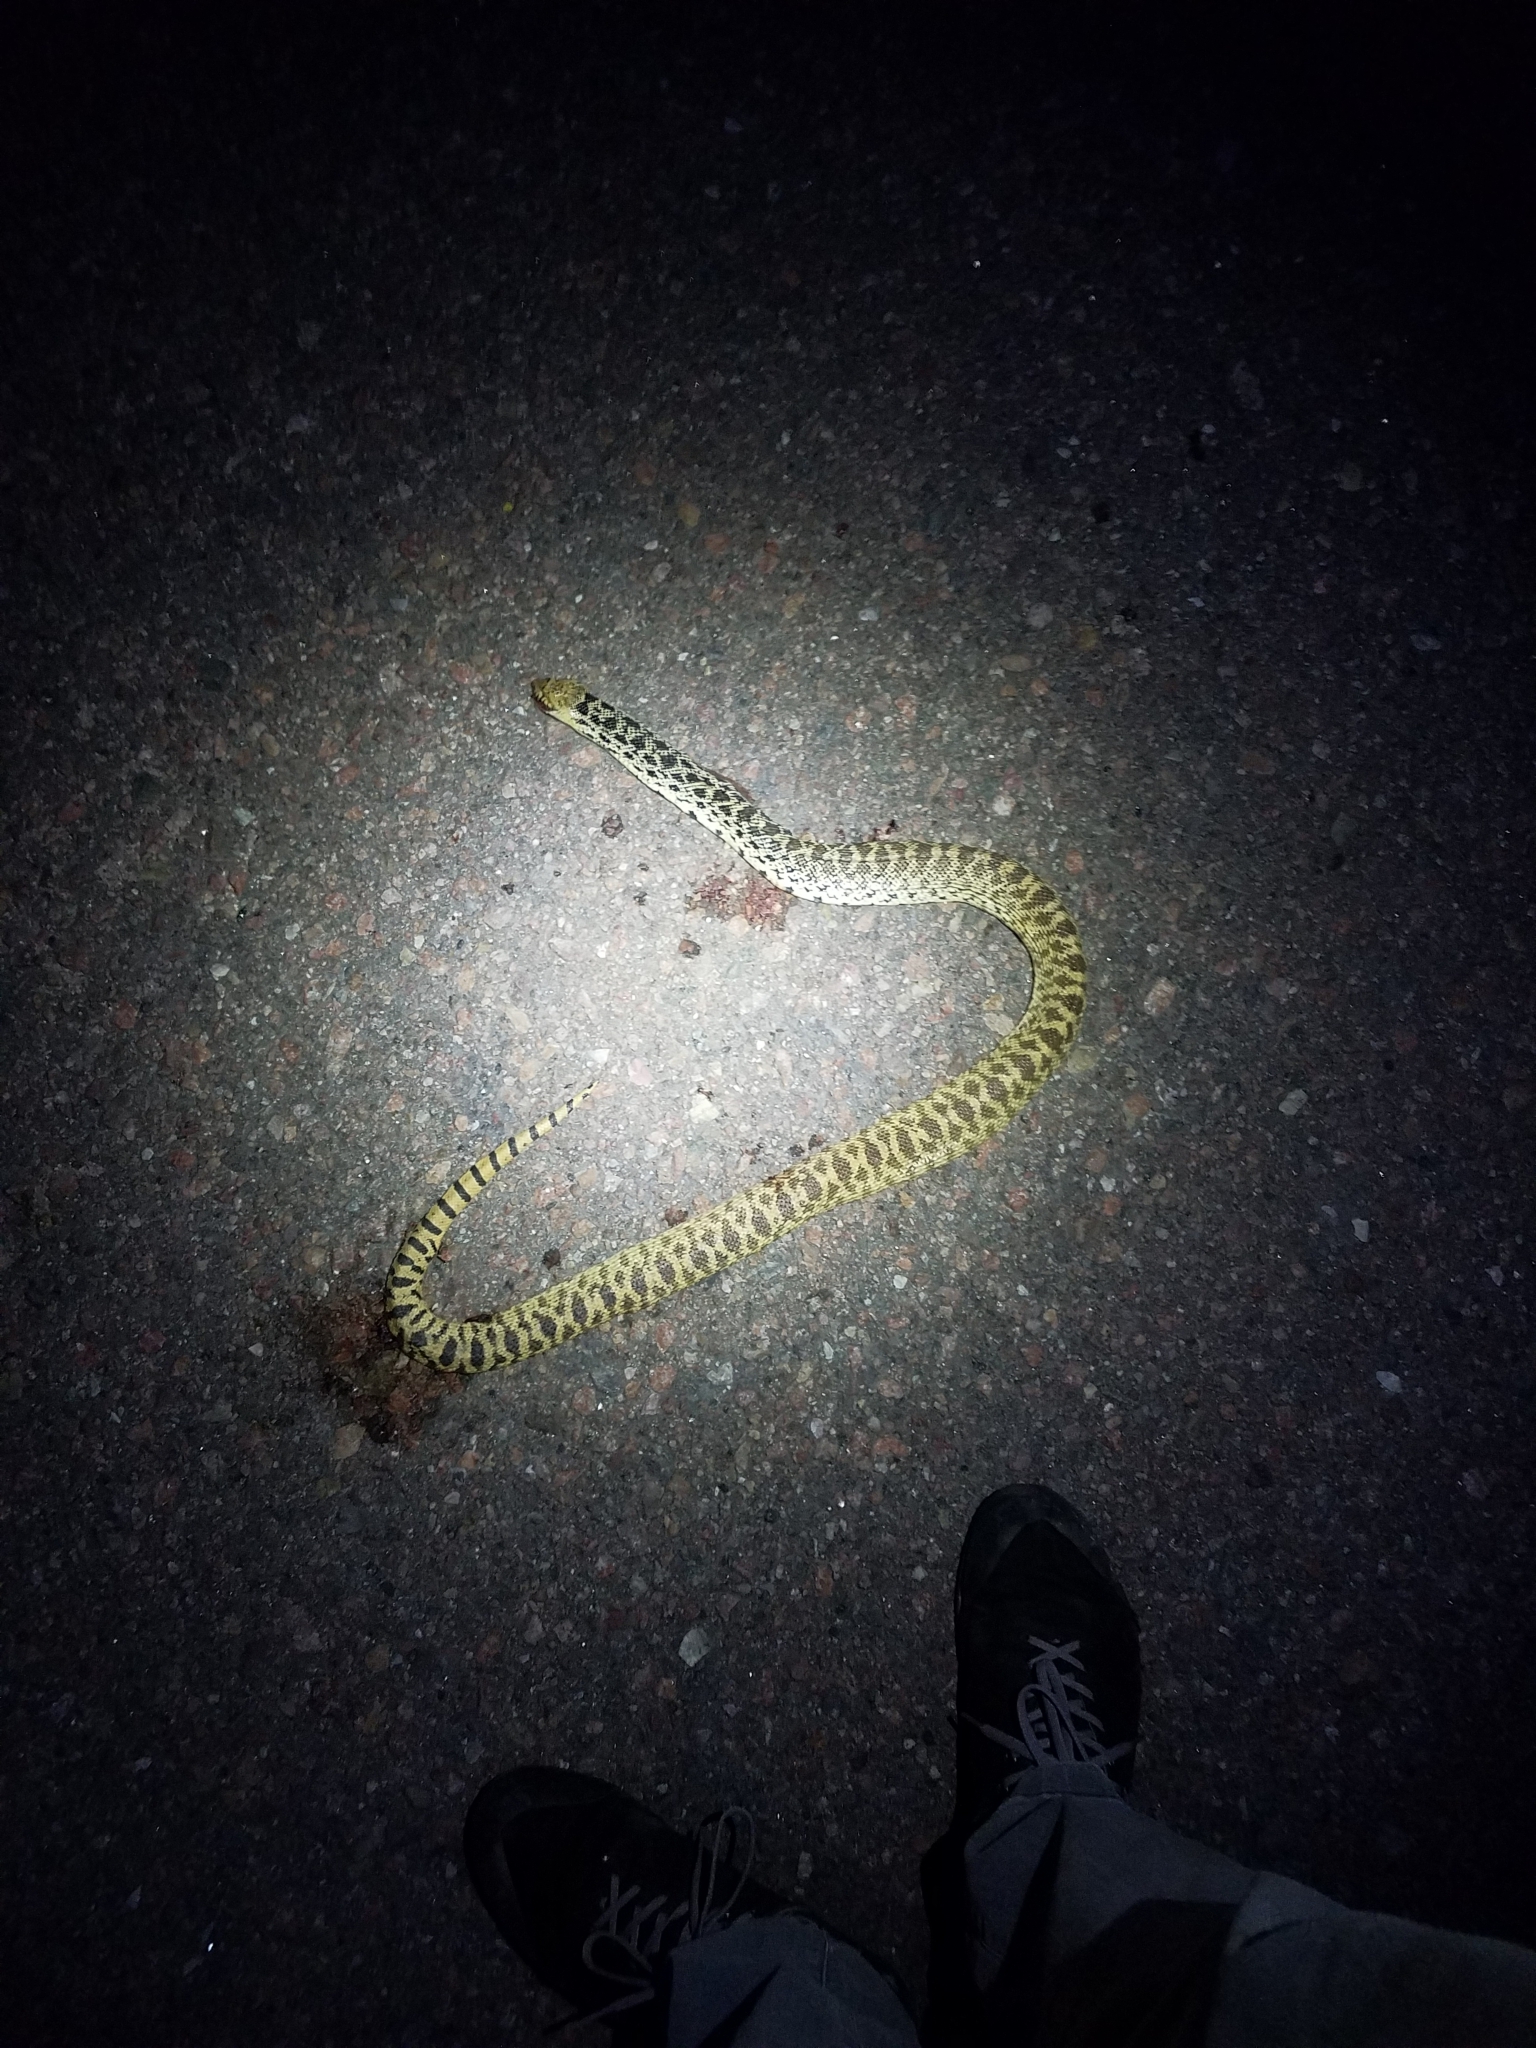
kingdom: Animalia
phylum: Chordata
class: Squamata
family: Colubridae
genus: Pituophis
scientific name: Pituophis catenifer
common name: Gopher snake
